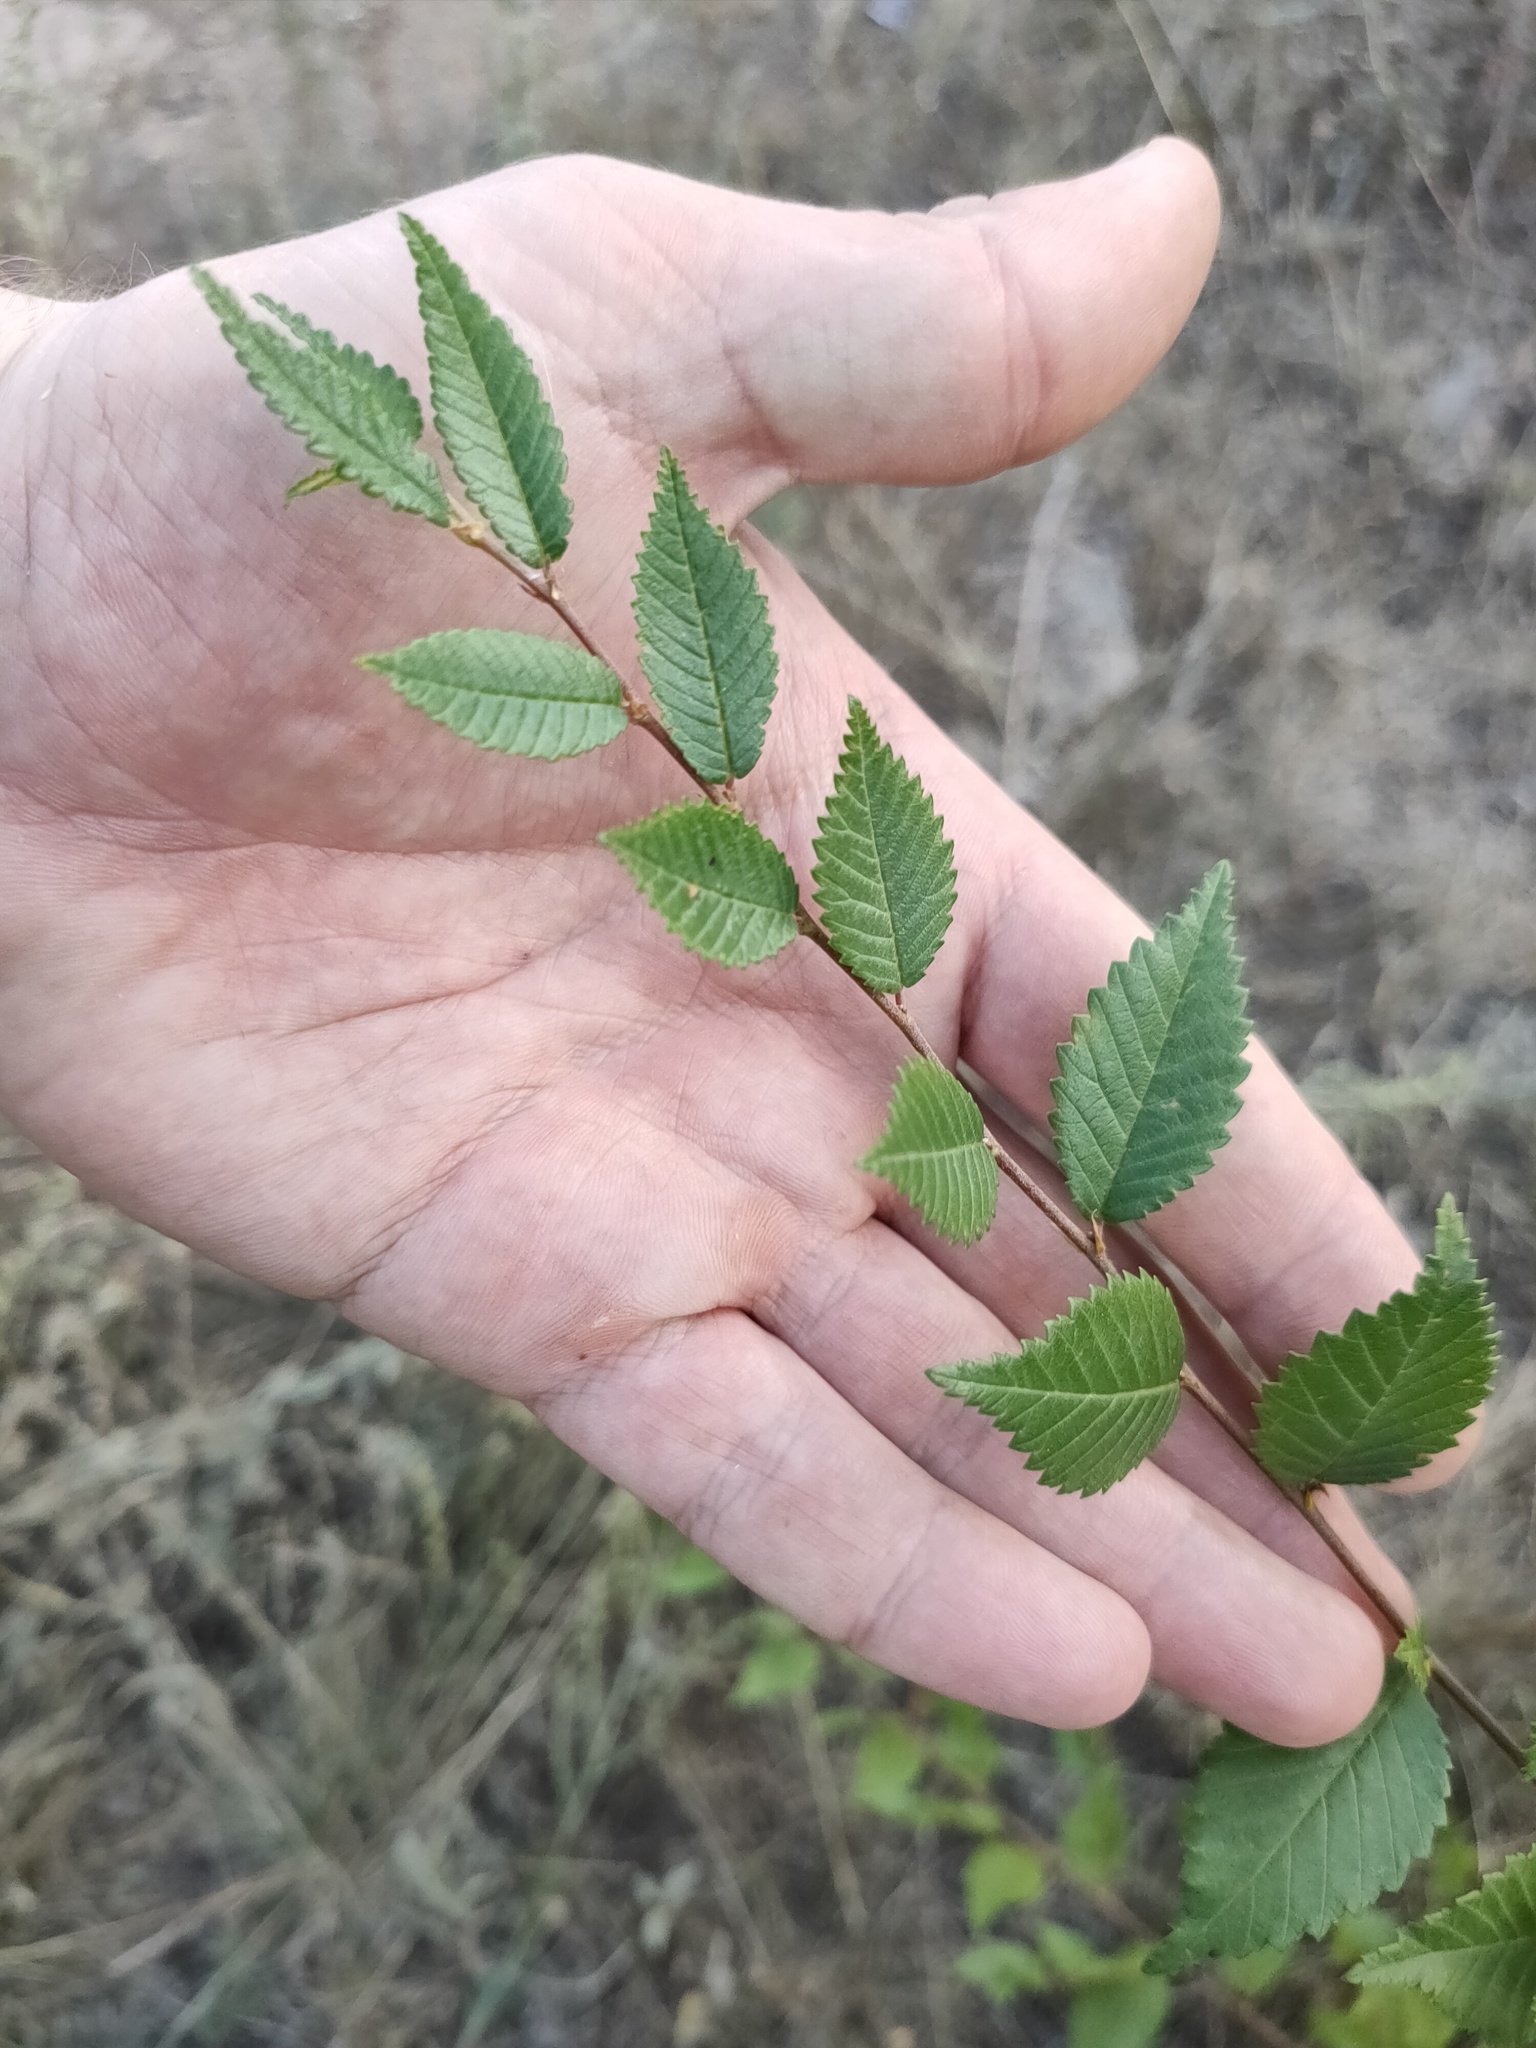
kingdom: Plantae
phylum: Tracheophyta
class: Magnoliopsida
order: Rosales
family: Ulmaceae
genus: Ulmus
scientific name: Ulmus pumila
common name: Siberian elm
